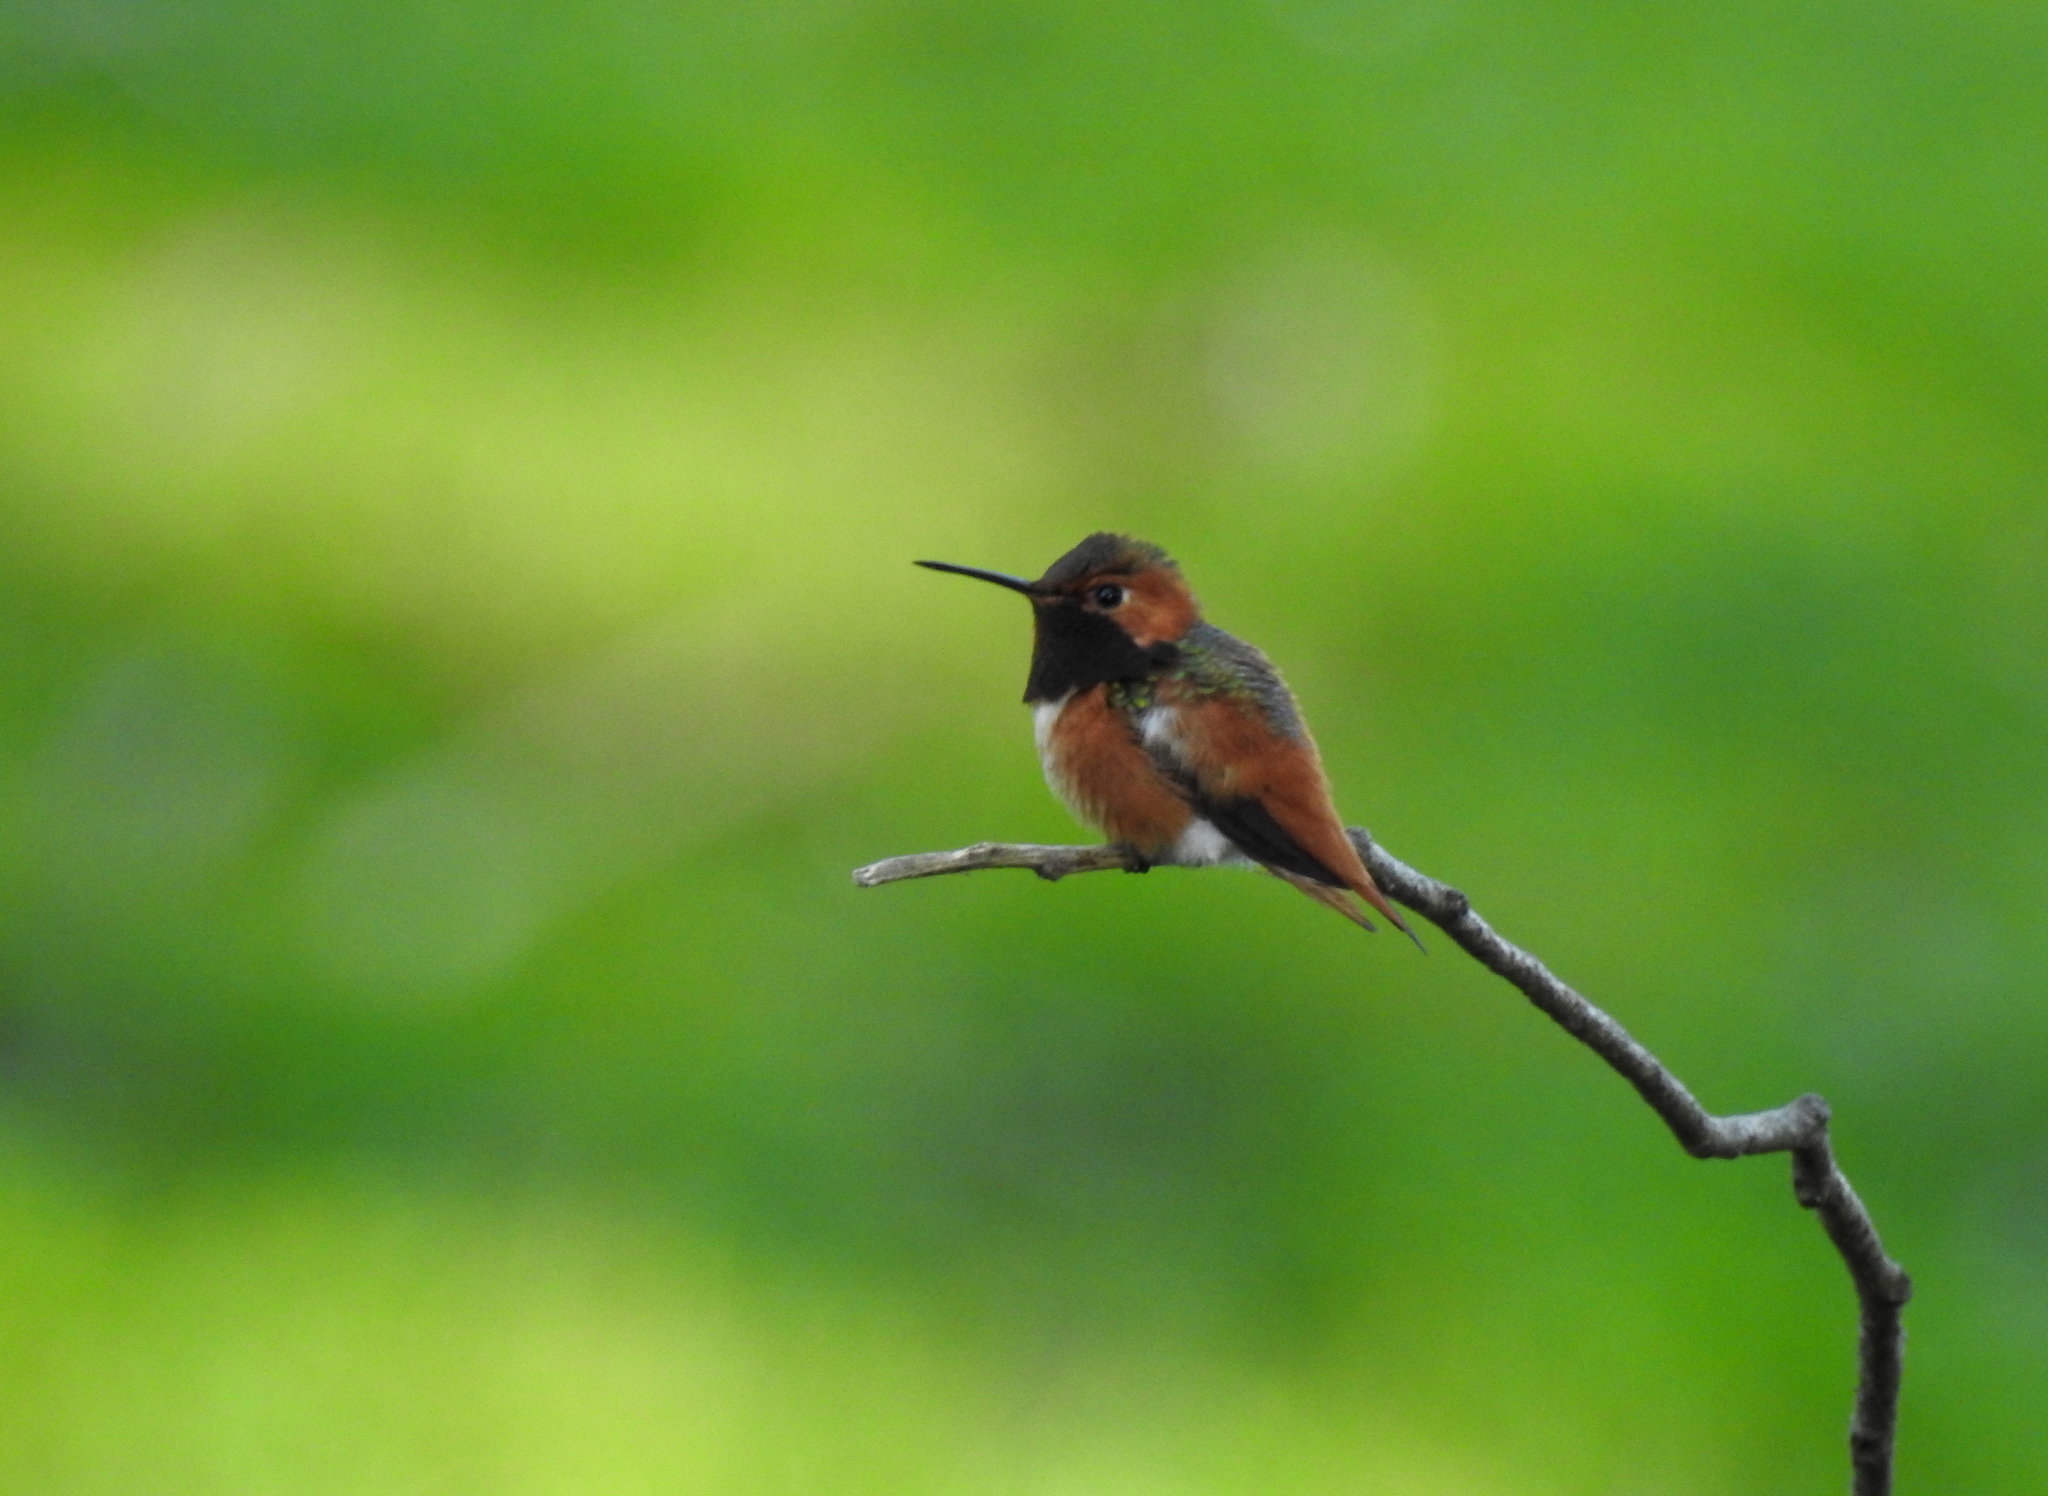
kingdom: Animalia
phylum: Chordata
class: Aves
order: Apodiformes
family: Trochilidae
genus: Selasphorus
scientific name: Selasphorus sasin
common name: Allen's hummingbird
